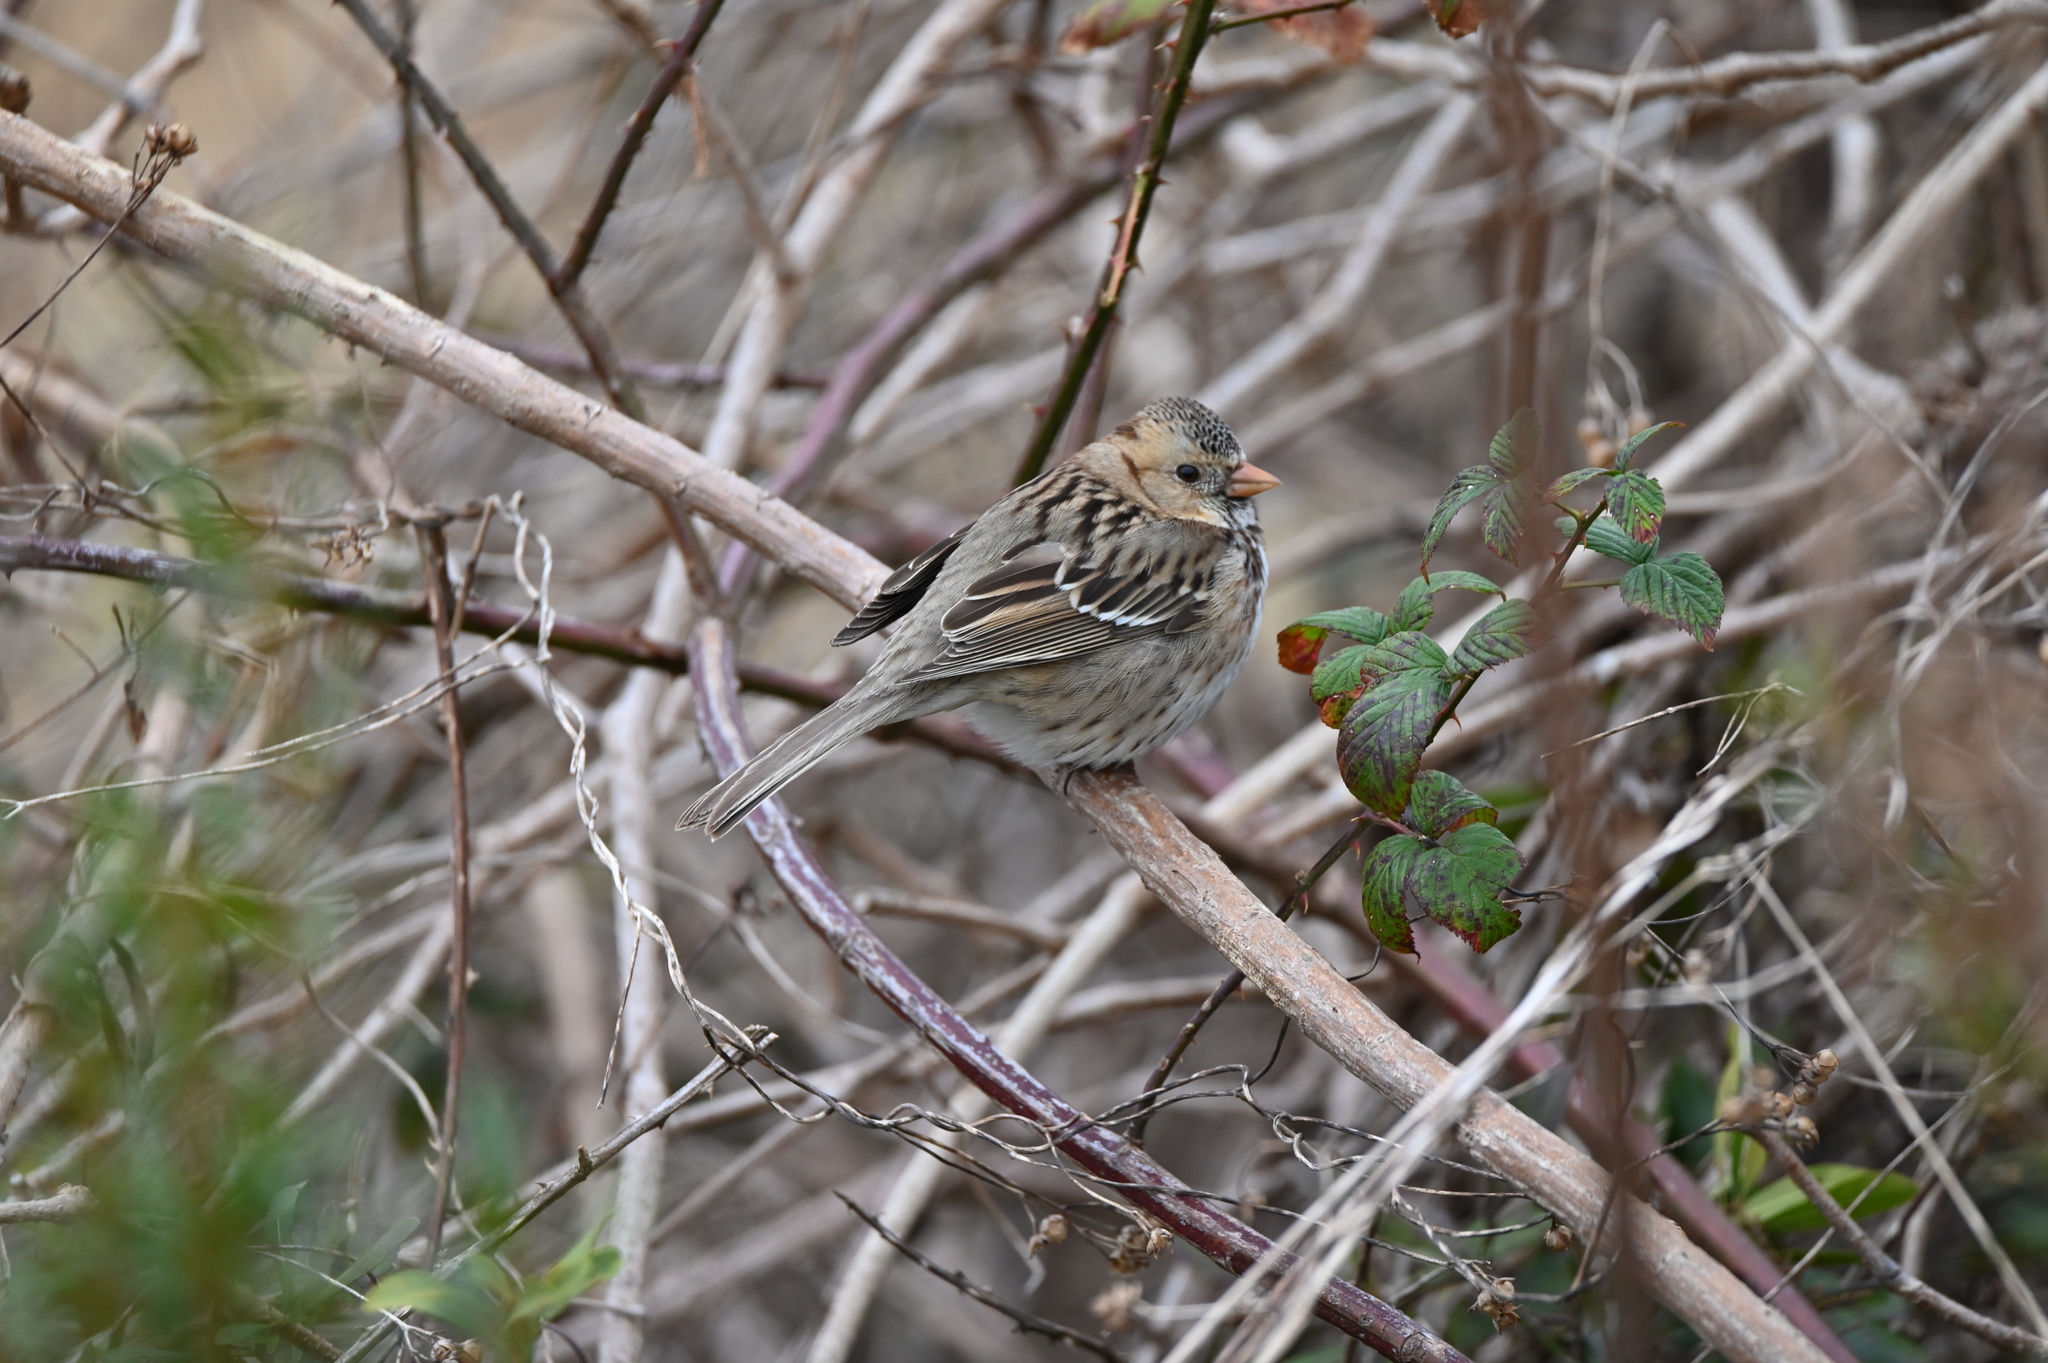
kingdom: Animalia
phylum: Chordata
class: Aves
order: Passeriformes
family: Passerellidae
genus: Zonotrichia
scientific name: Zonotrichia querula
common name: Harris's sparrow
